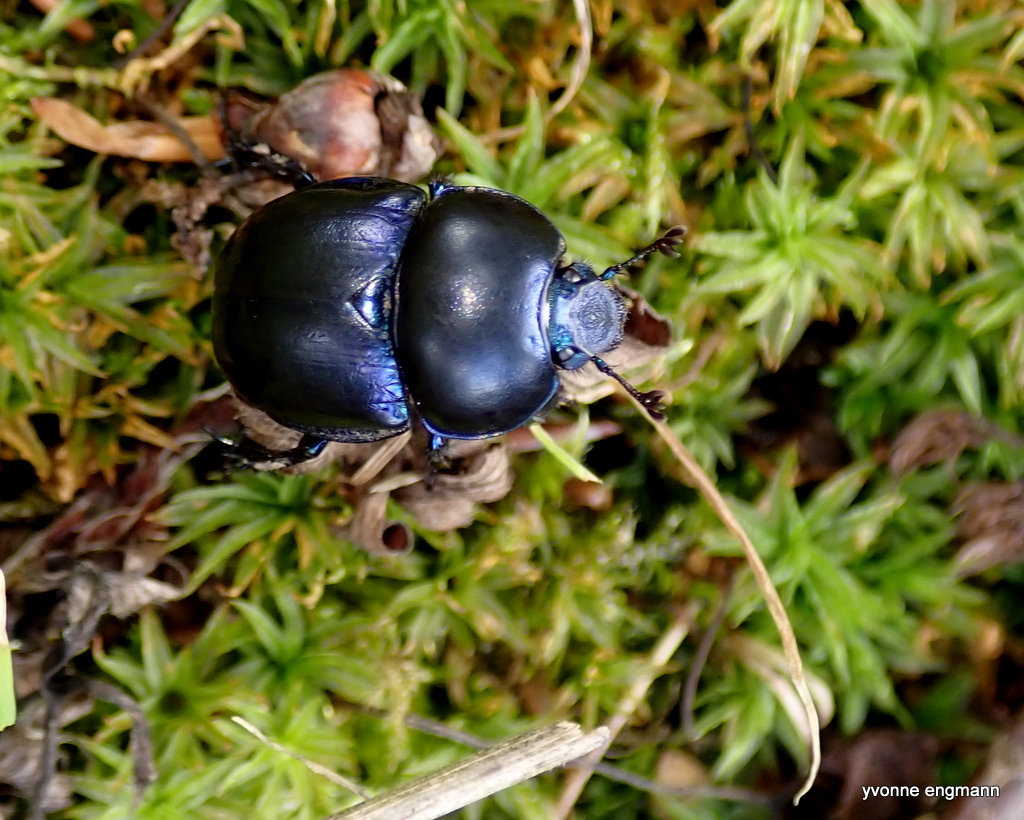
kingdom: Animalia
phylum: Arthropoda
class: Insecta
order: Coleoptera
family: Geotrupidae
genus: Trypocopris
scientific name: Trypocopris vernalis
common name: Spring dumbledor
